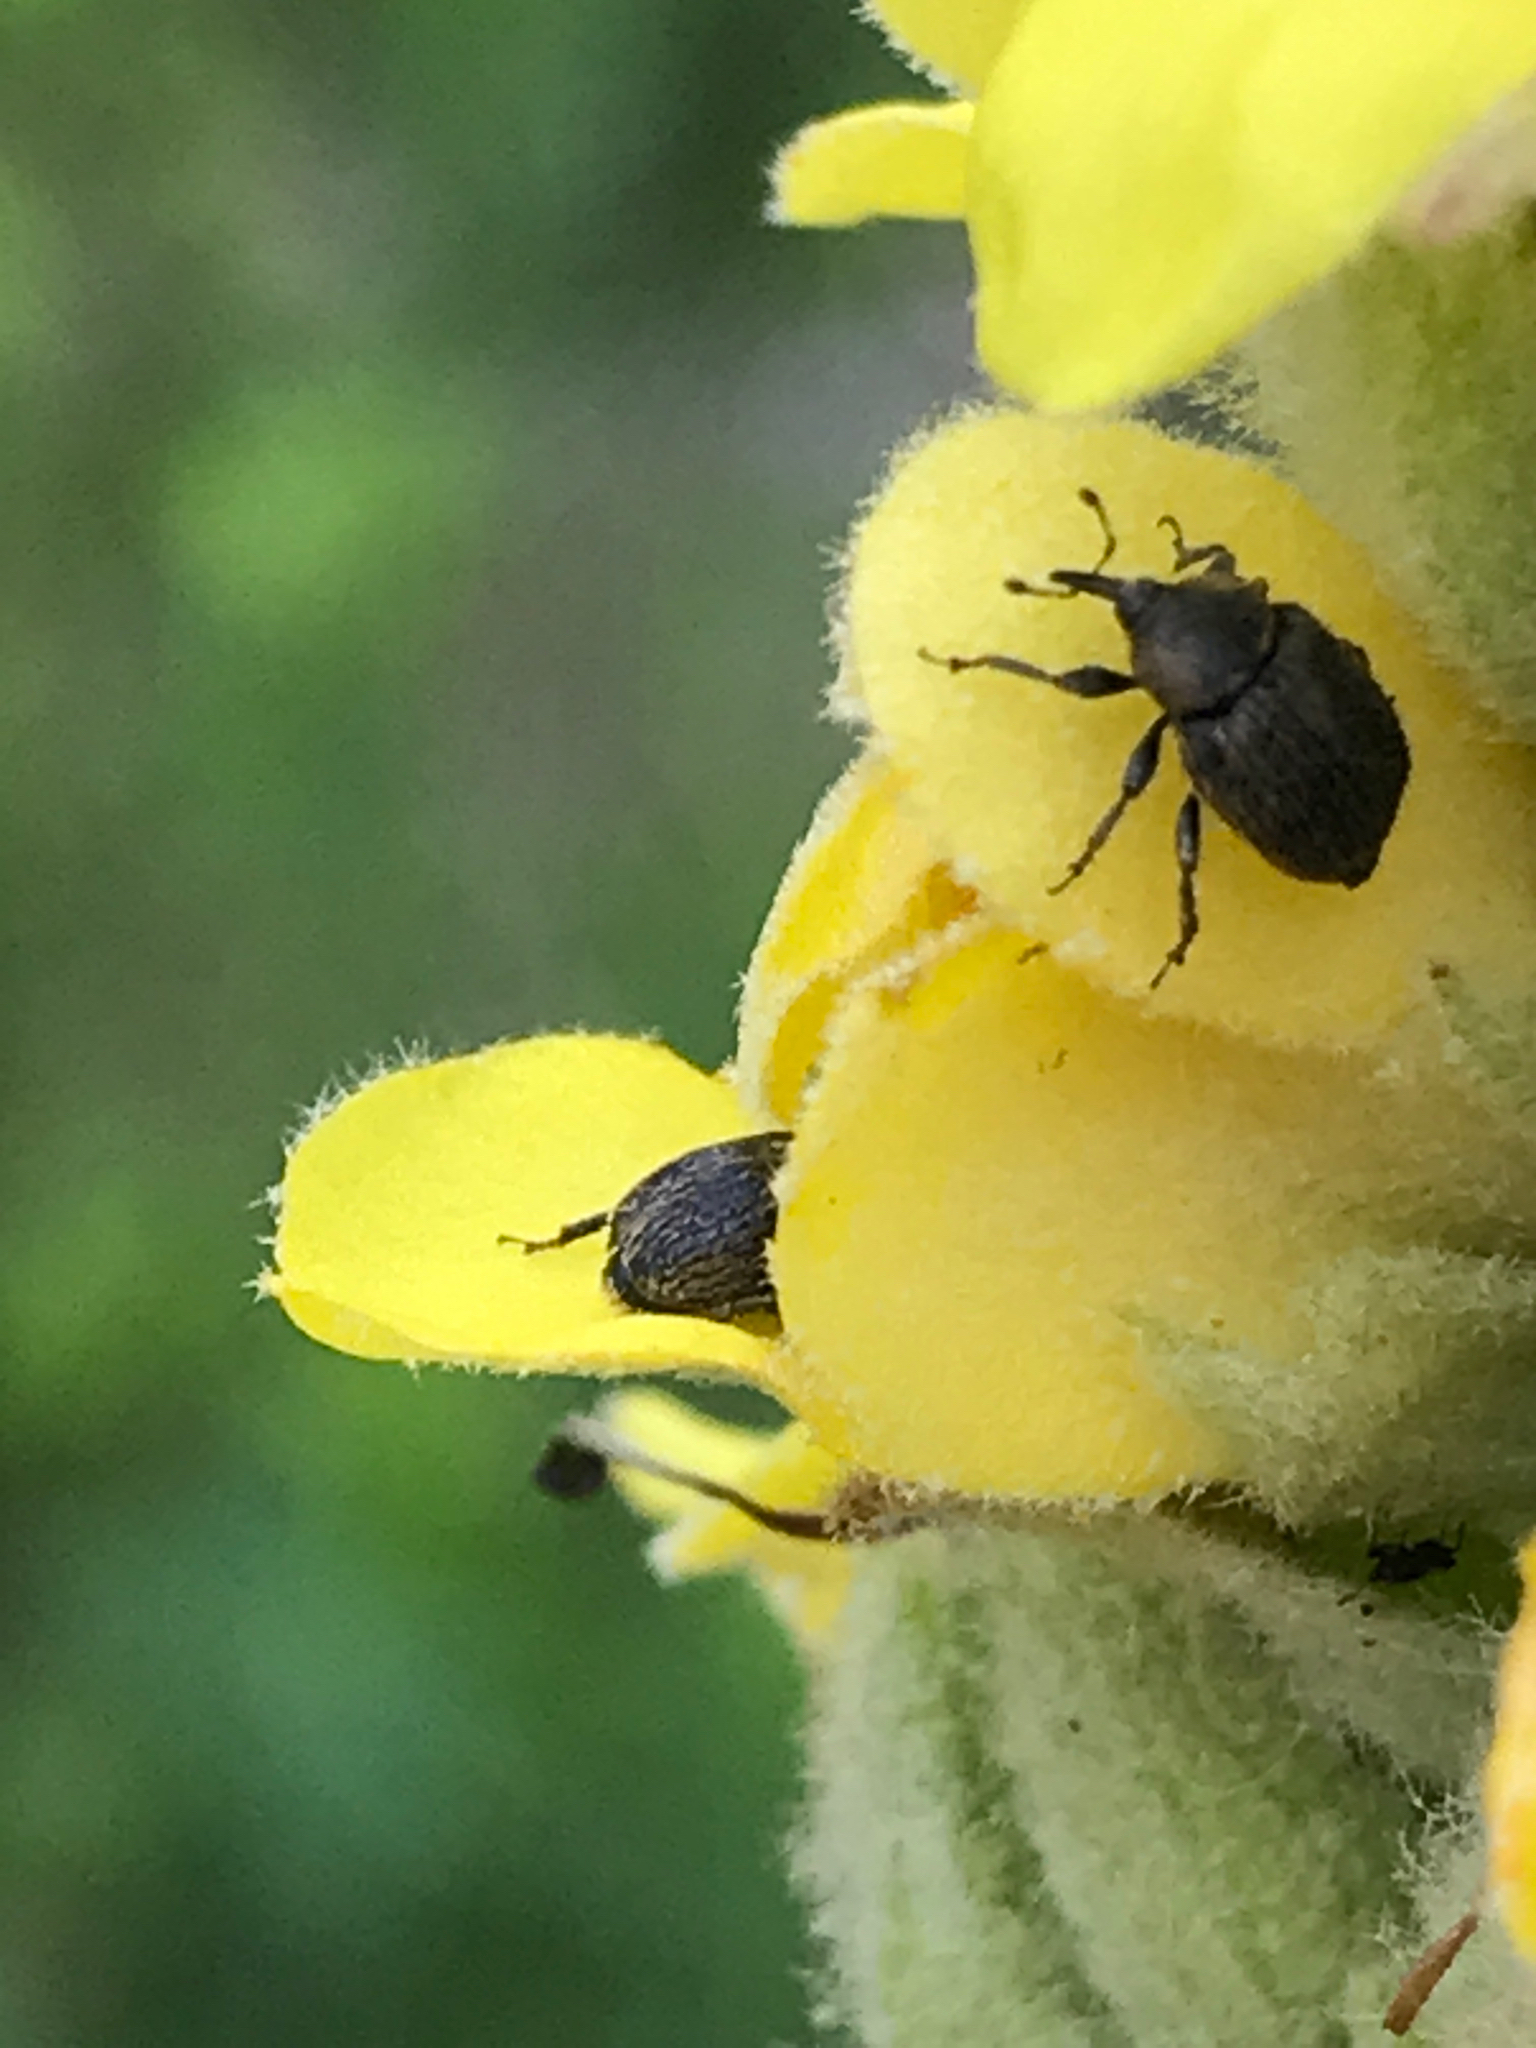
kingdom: Animalia
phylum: Arthropoda
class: Insecta
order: Coleoptera
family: Curculionidae
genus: Rhinusa
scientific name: Rhinusa tetra
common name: Weevil
